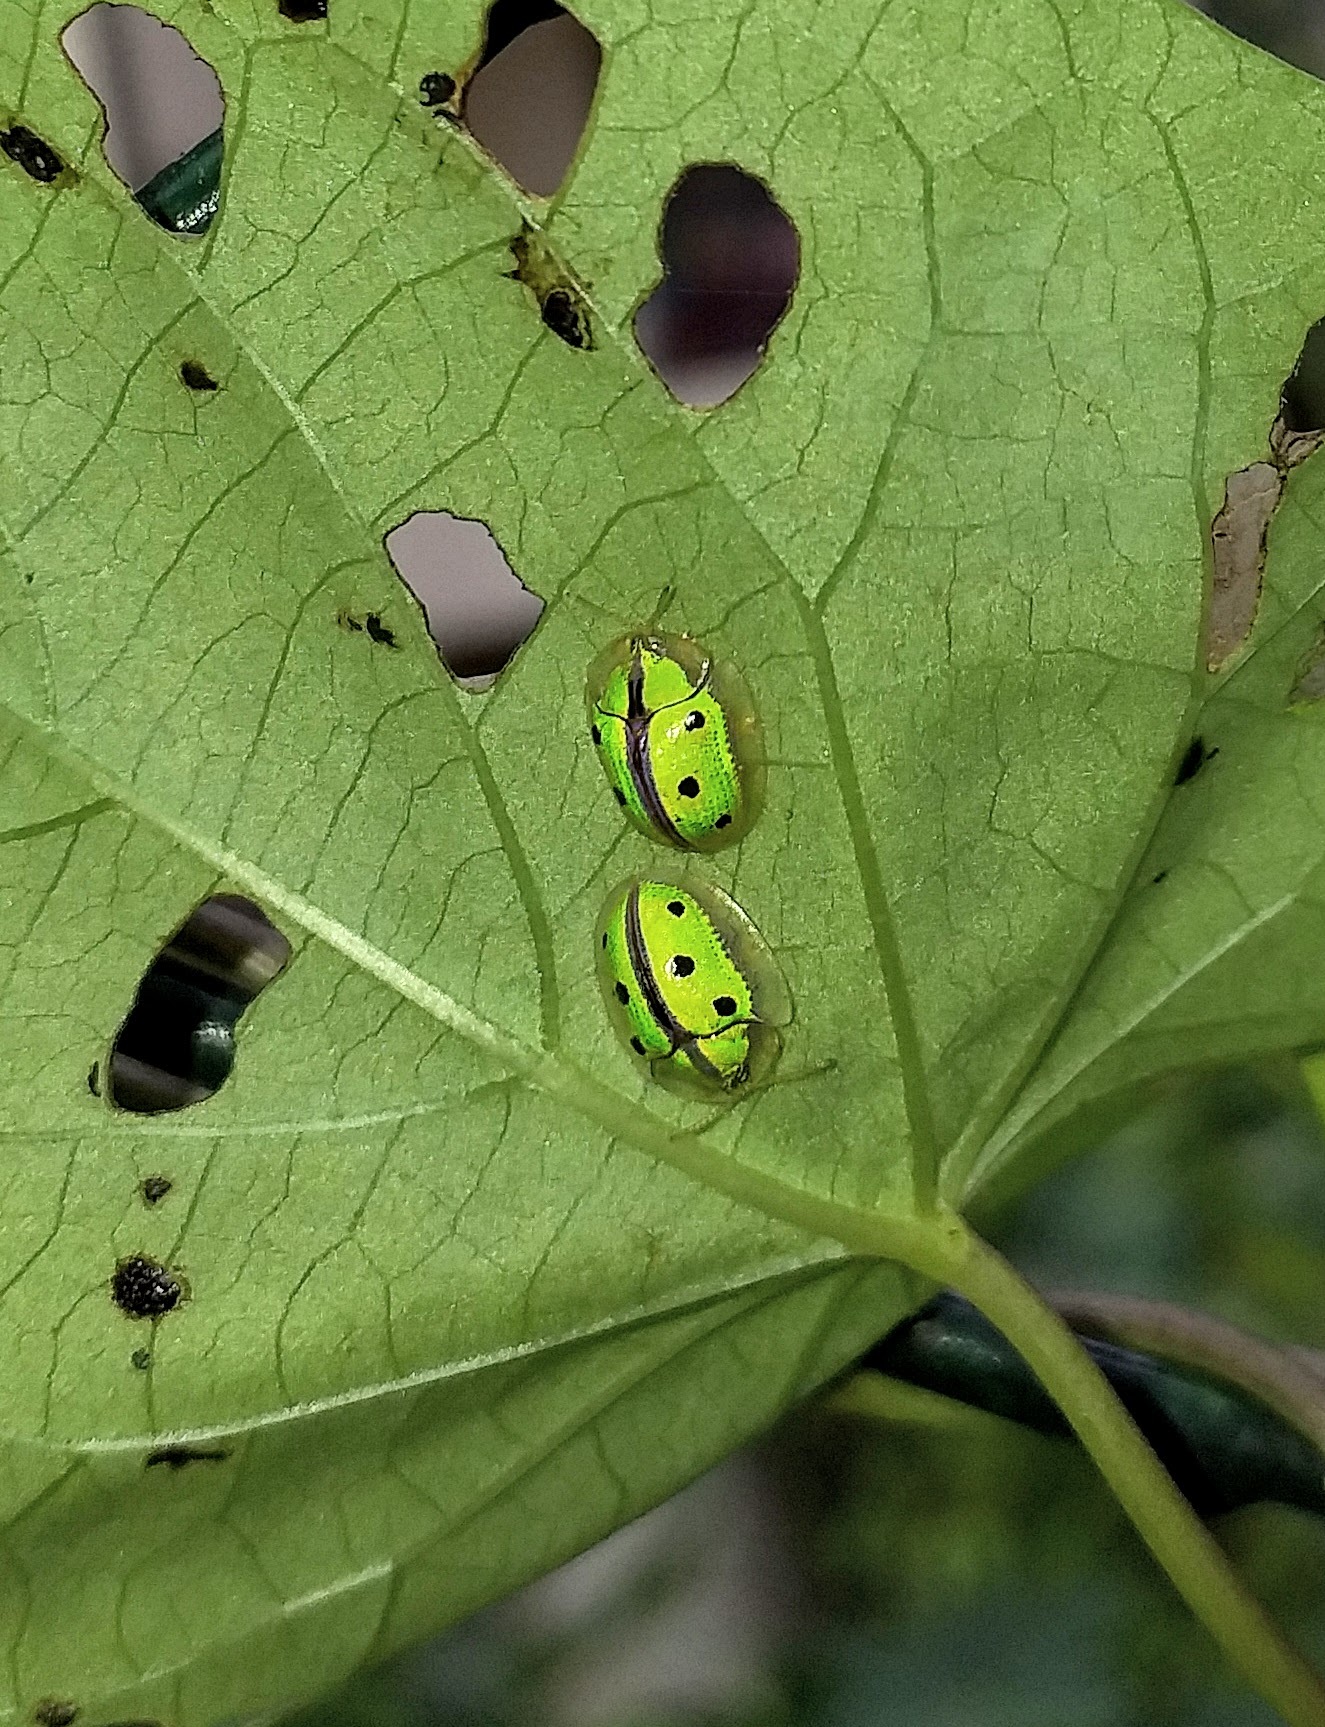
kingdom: Animalia
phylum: Arthropoda
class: Insecta
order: Coleoptera
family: Chrysomelidae
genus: Chiridopsis
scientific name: Chiridopsis bipunctata
